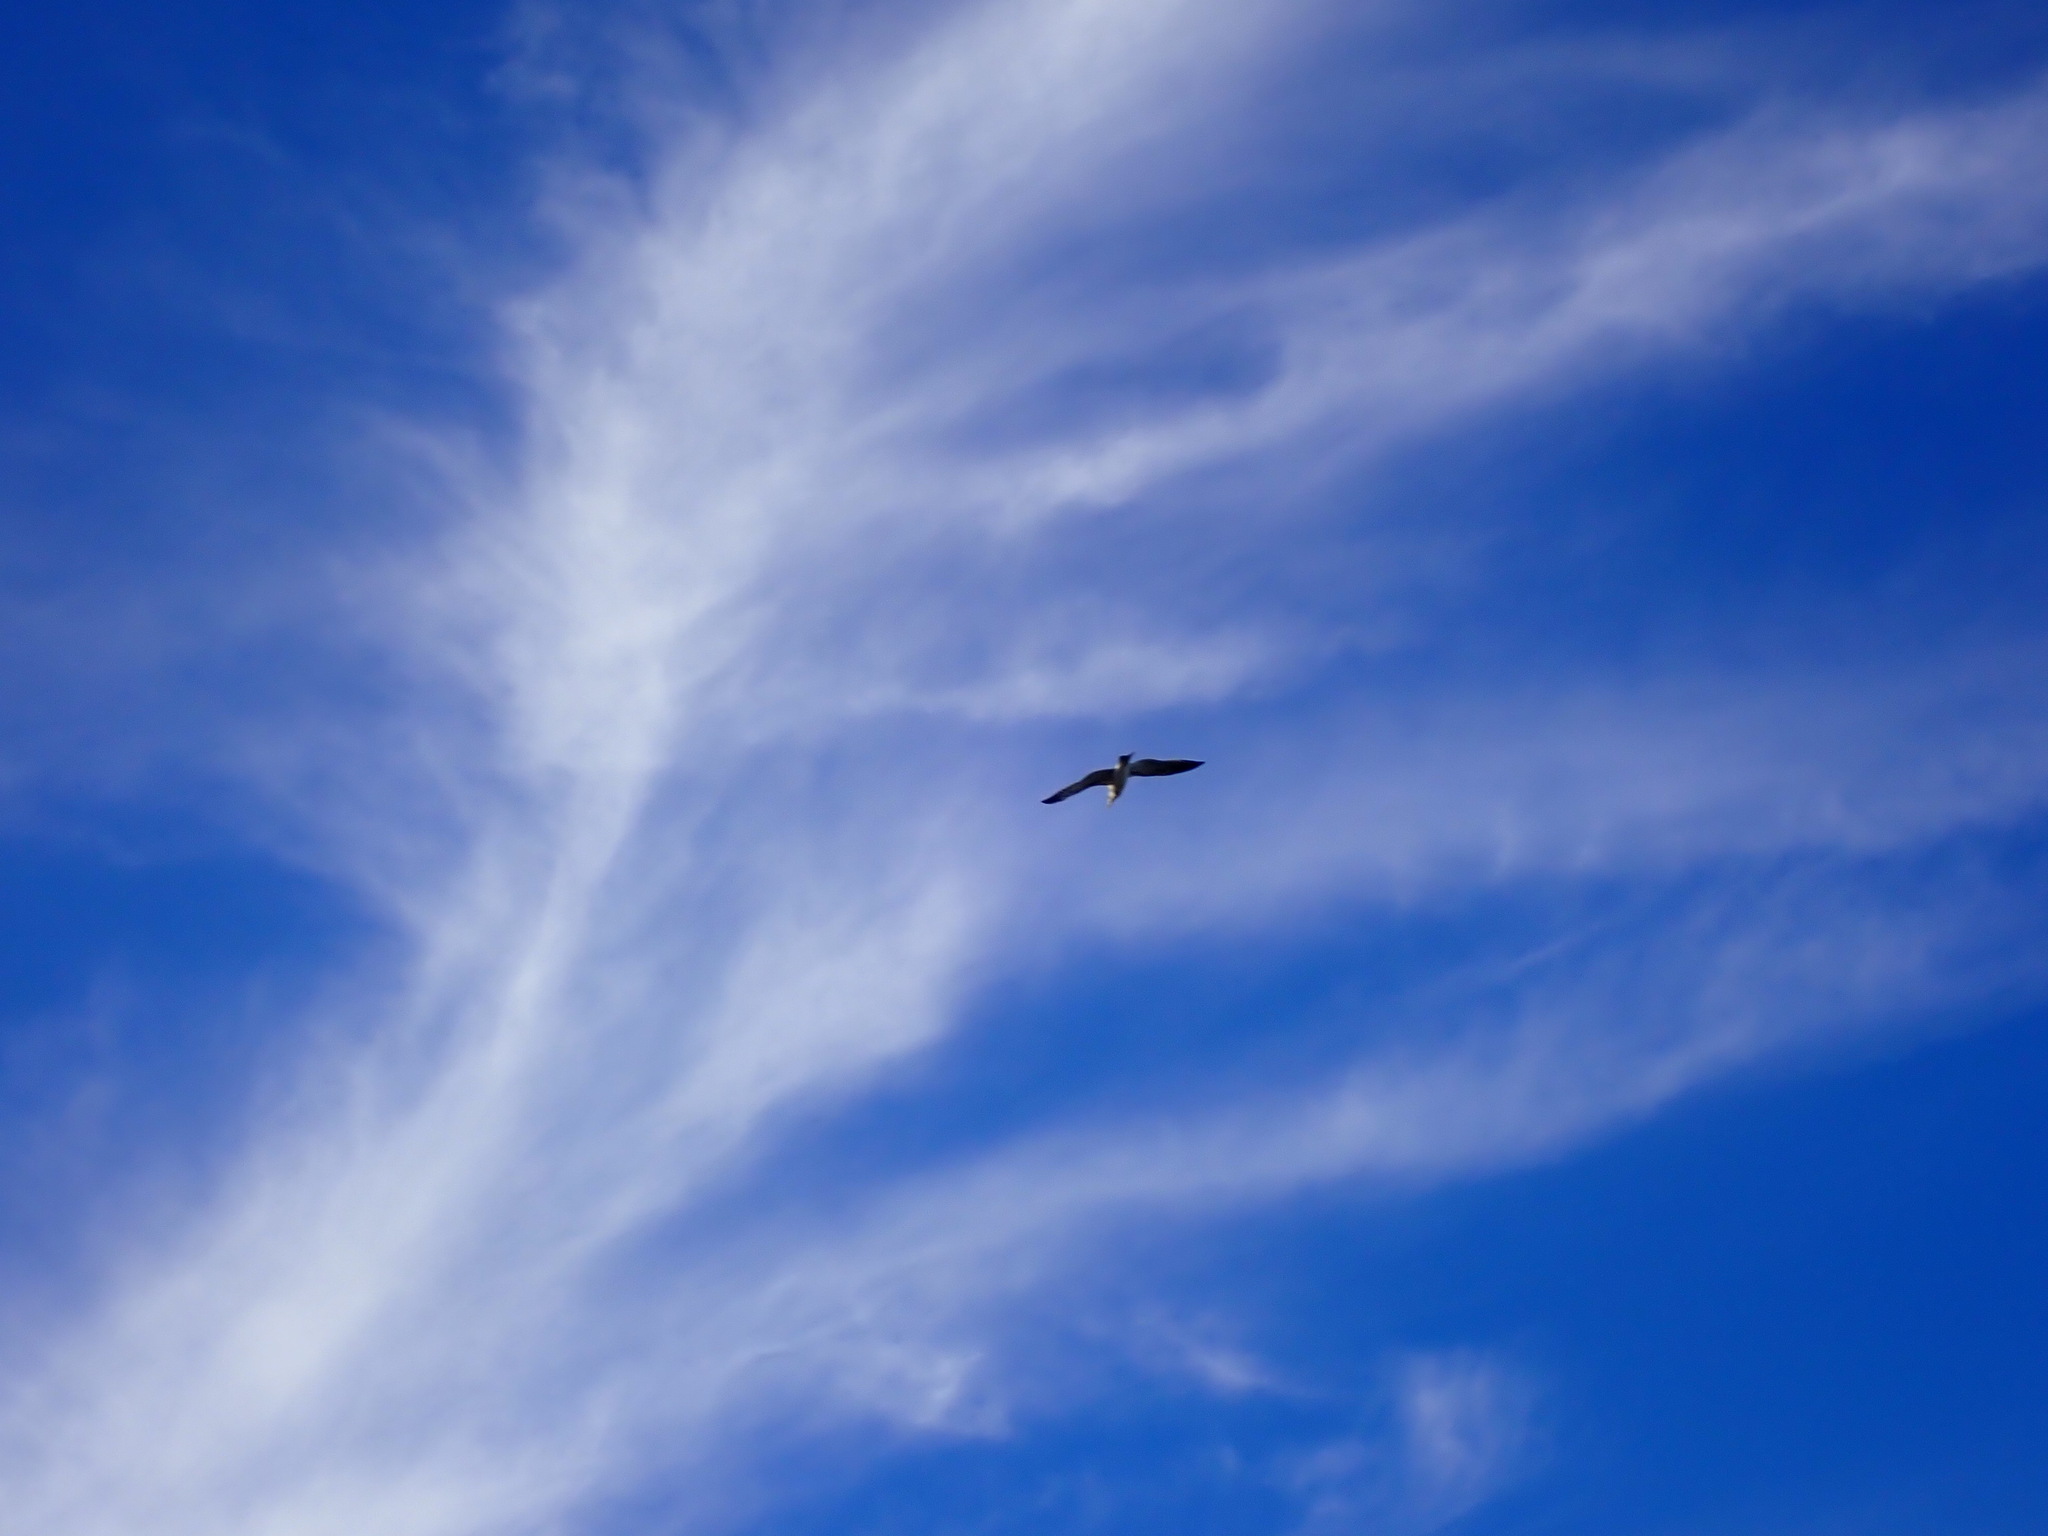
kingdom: Animalia
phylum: Chordata
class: Aves
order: Charadriiformes
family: Laridae
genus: Larus
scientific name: Larus dominicanus
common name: Kelp gull
